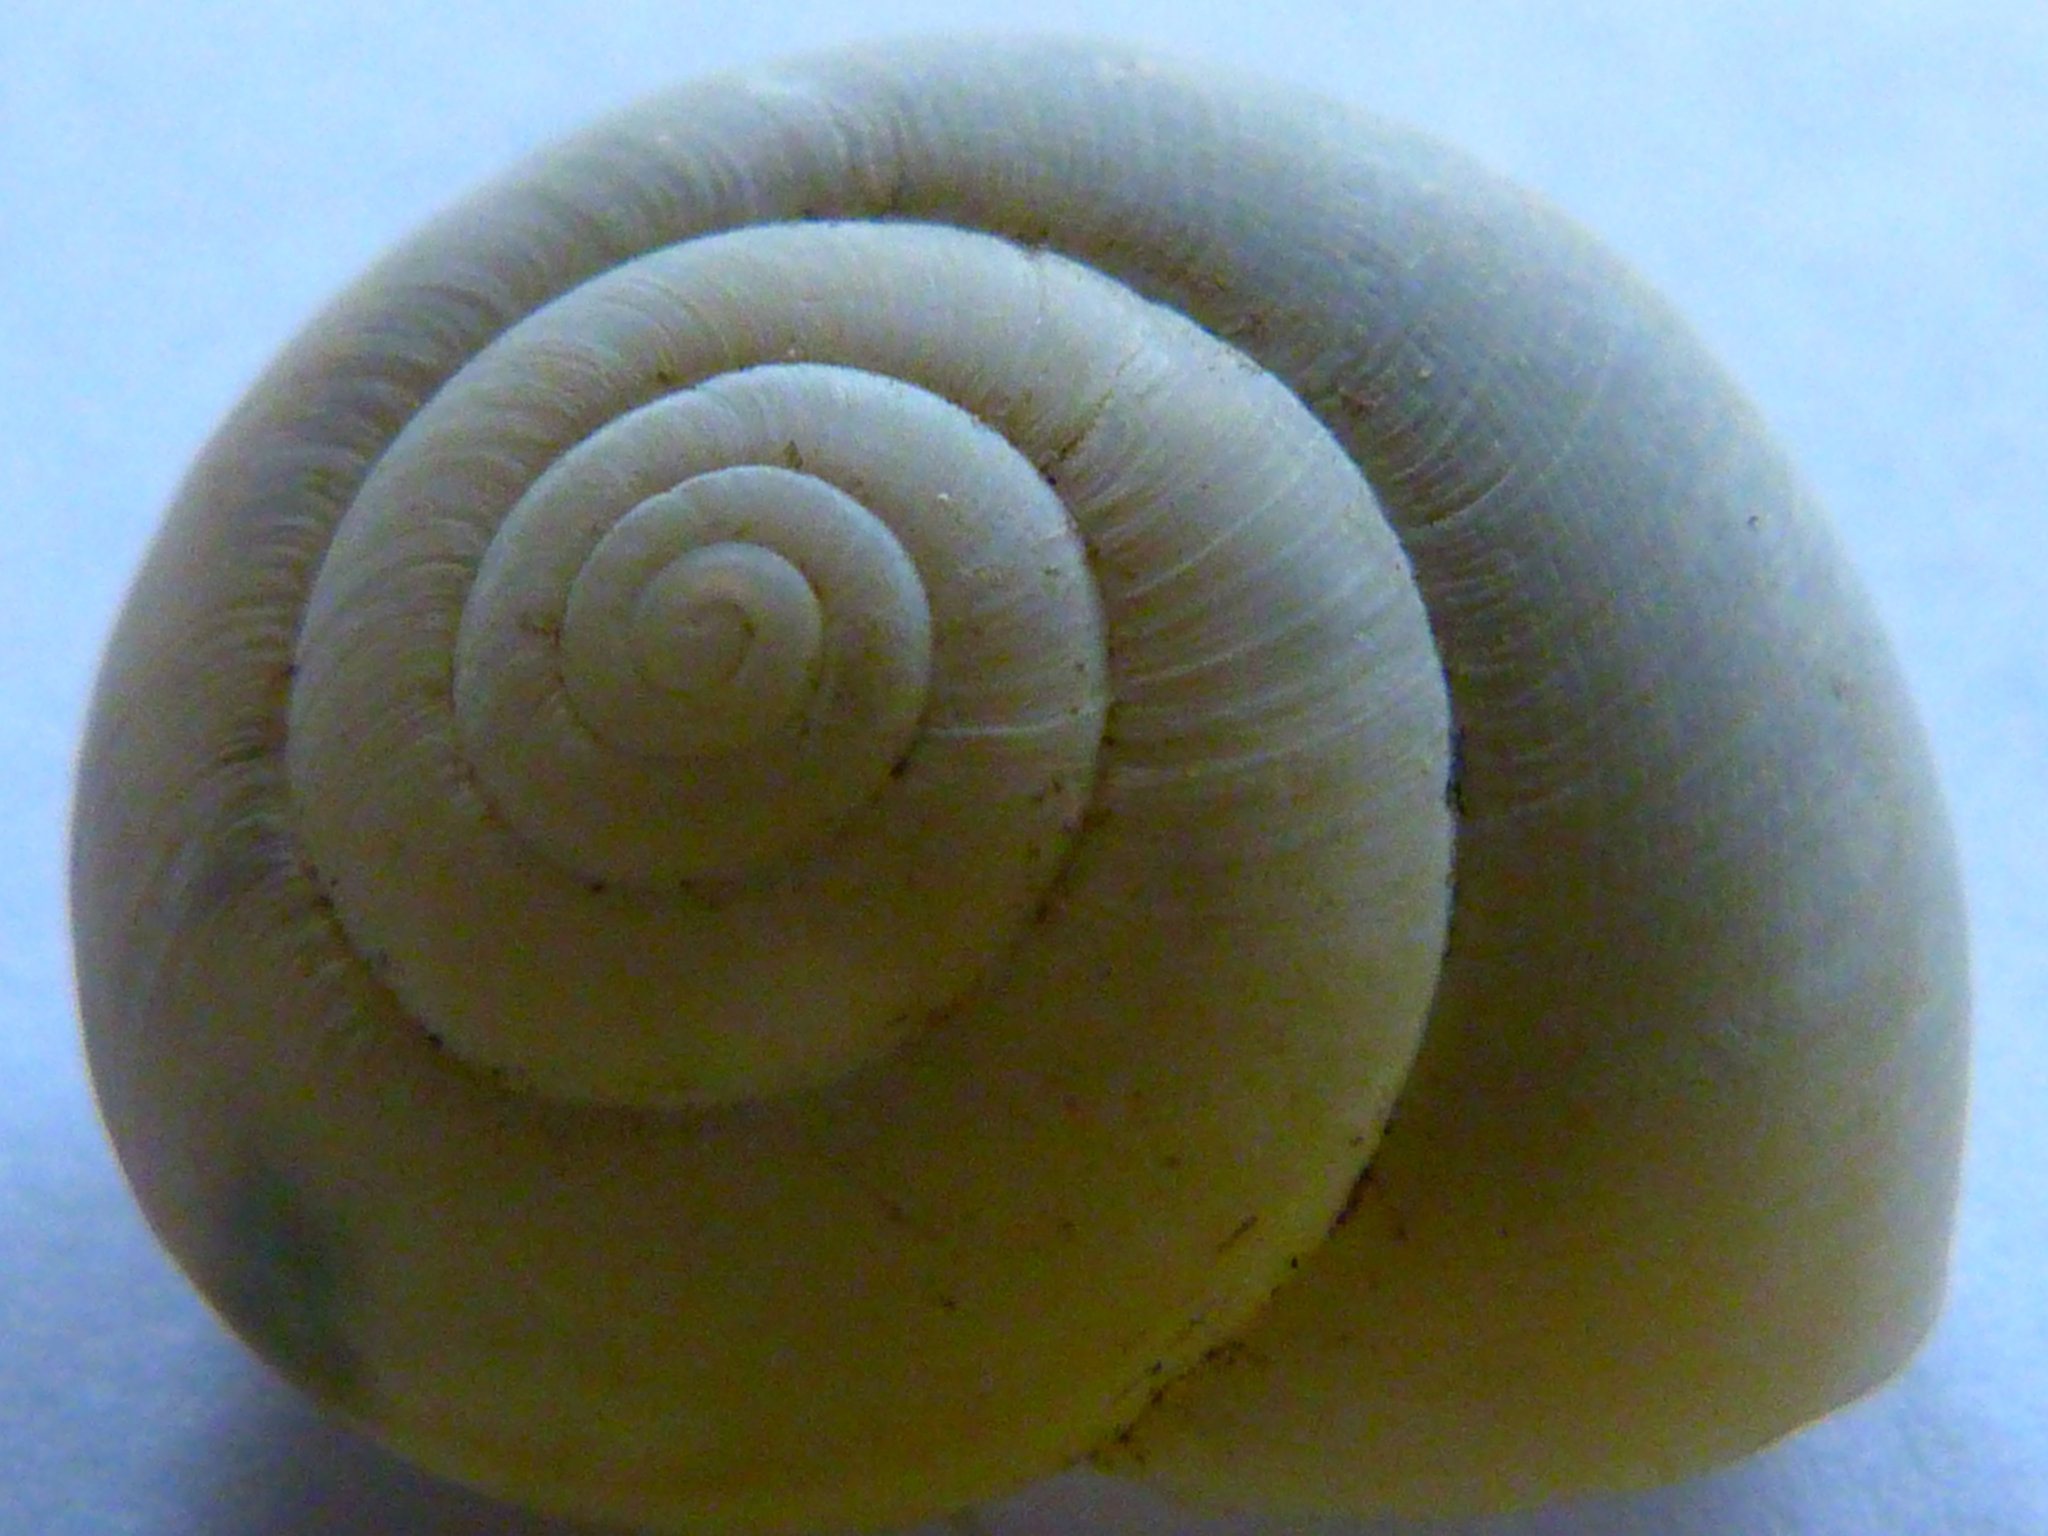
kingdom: Animalia
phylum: Mollusca
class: Gastropoda
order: Stylommatophora
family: Xanthonychidae
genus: Helminthoglypta
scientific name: Helminthoglypta traskii
